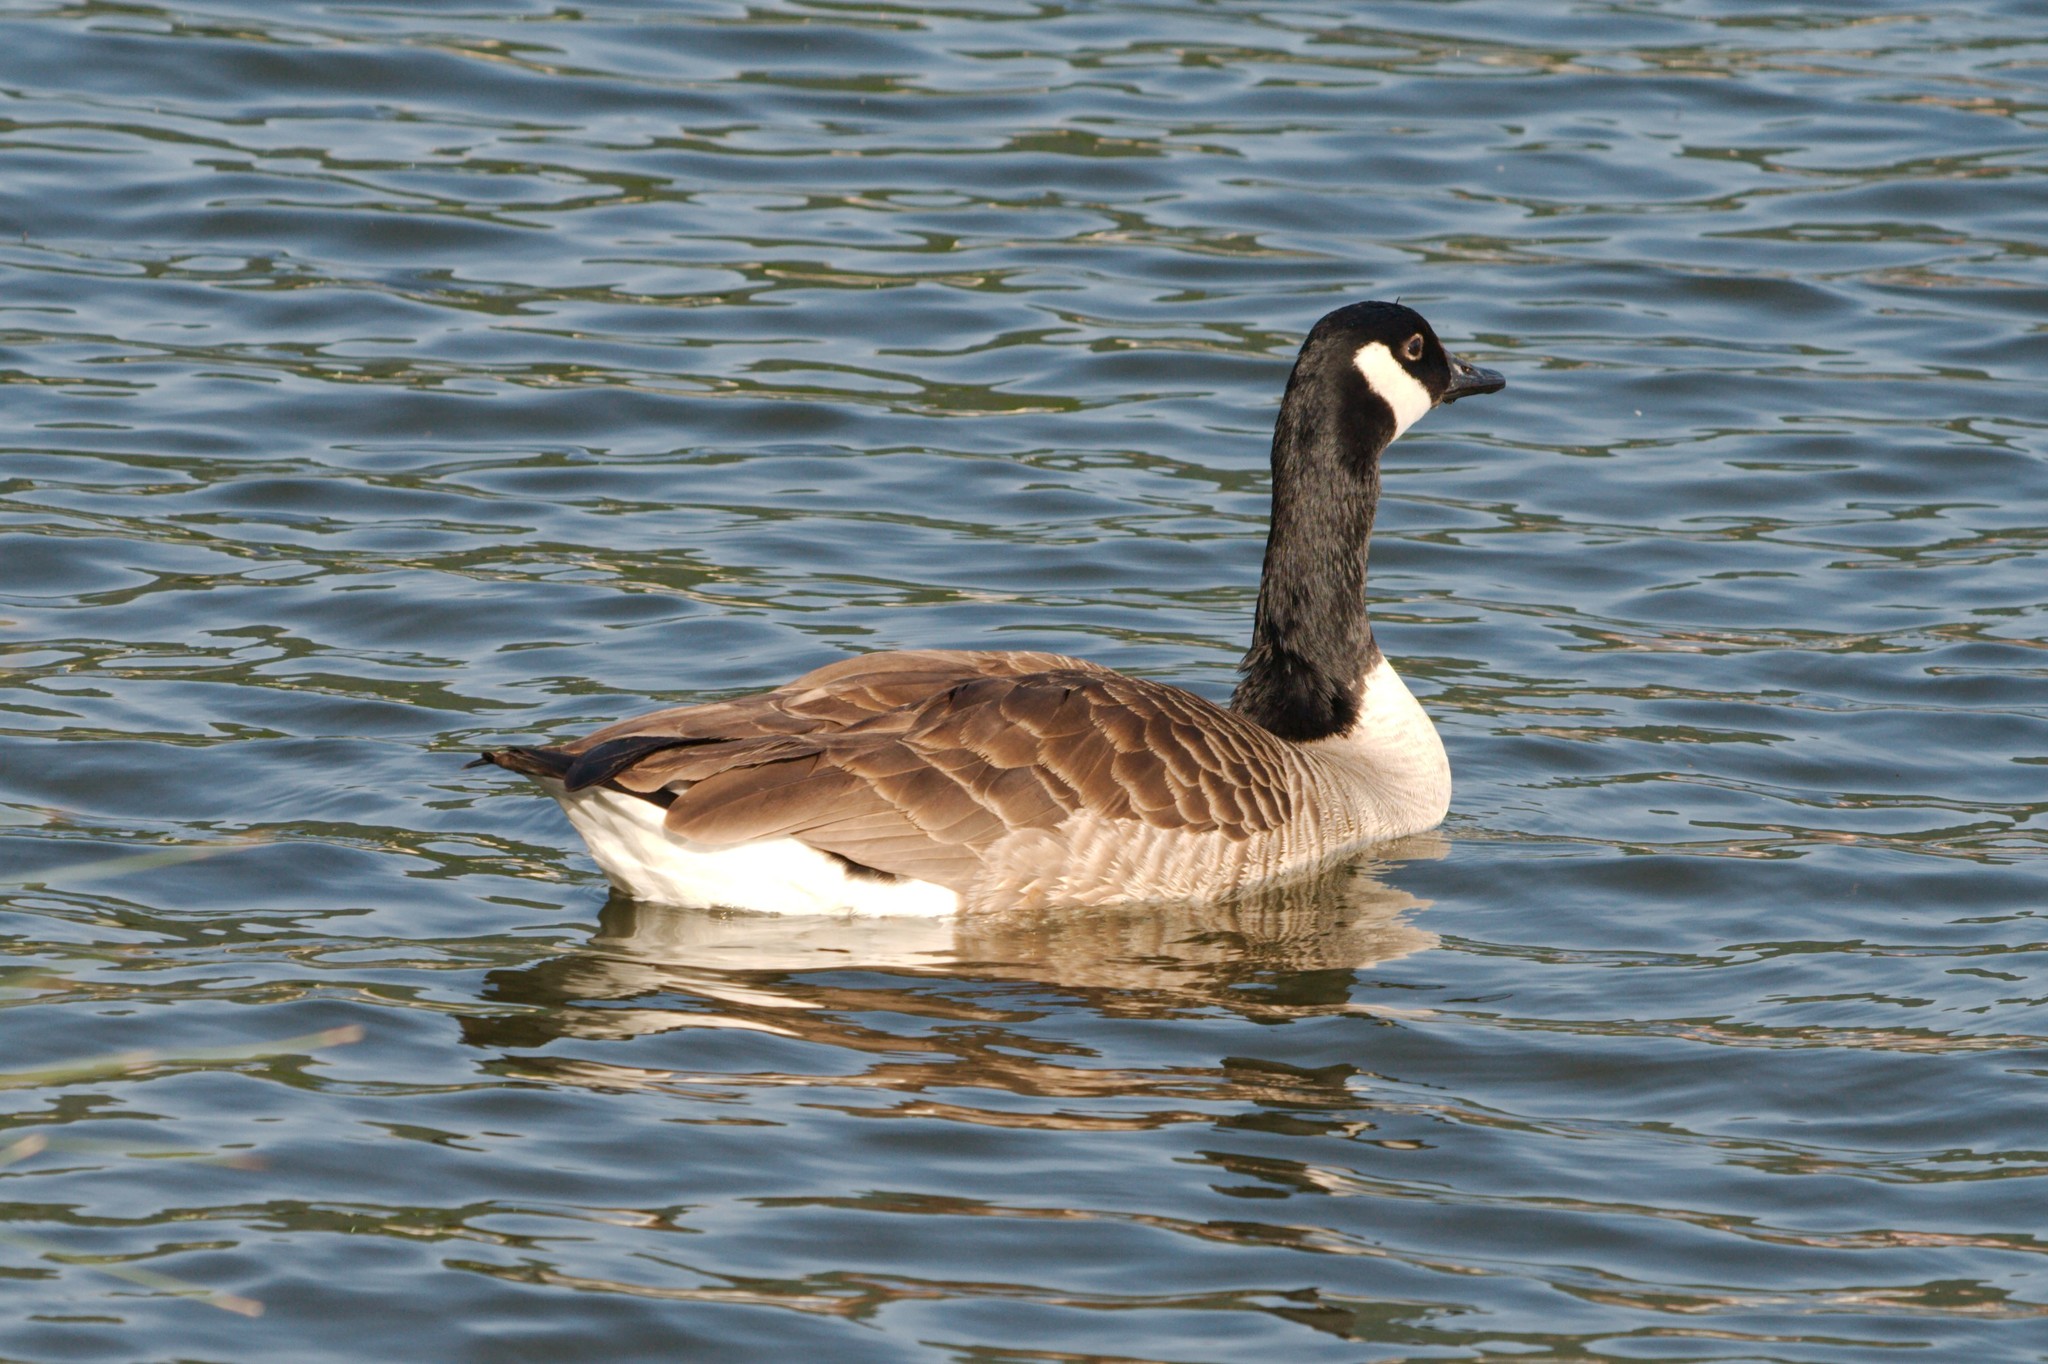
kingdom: Animalia
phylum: Chordata
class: Aves
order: Anseriformes
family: Anatidae
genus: Branta
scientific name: Branta canadensis
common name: Canada goose
